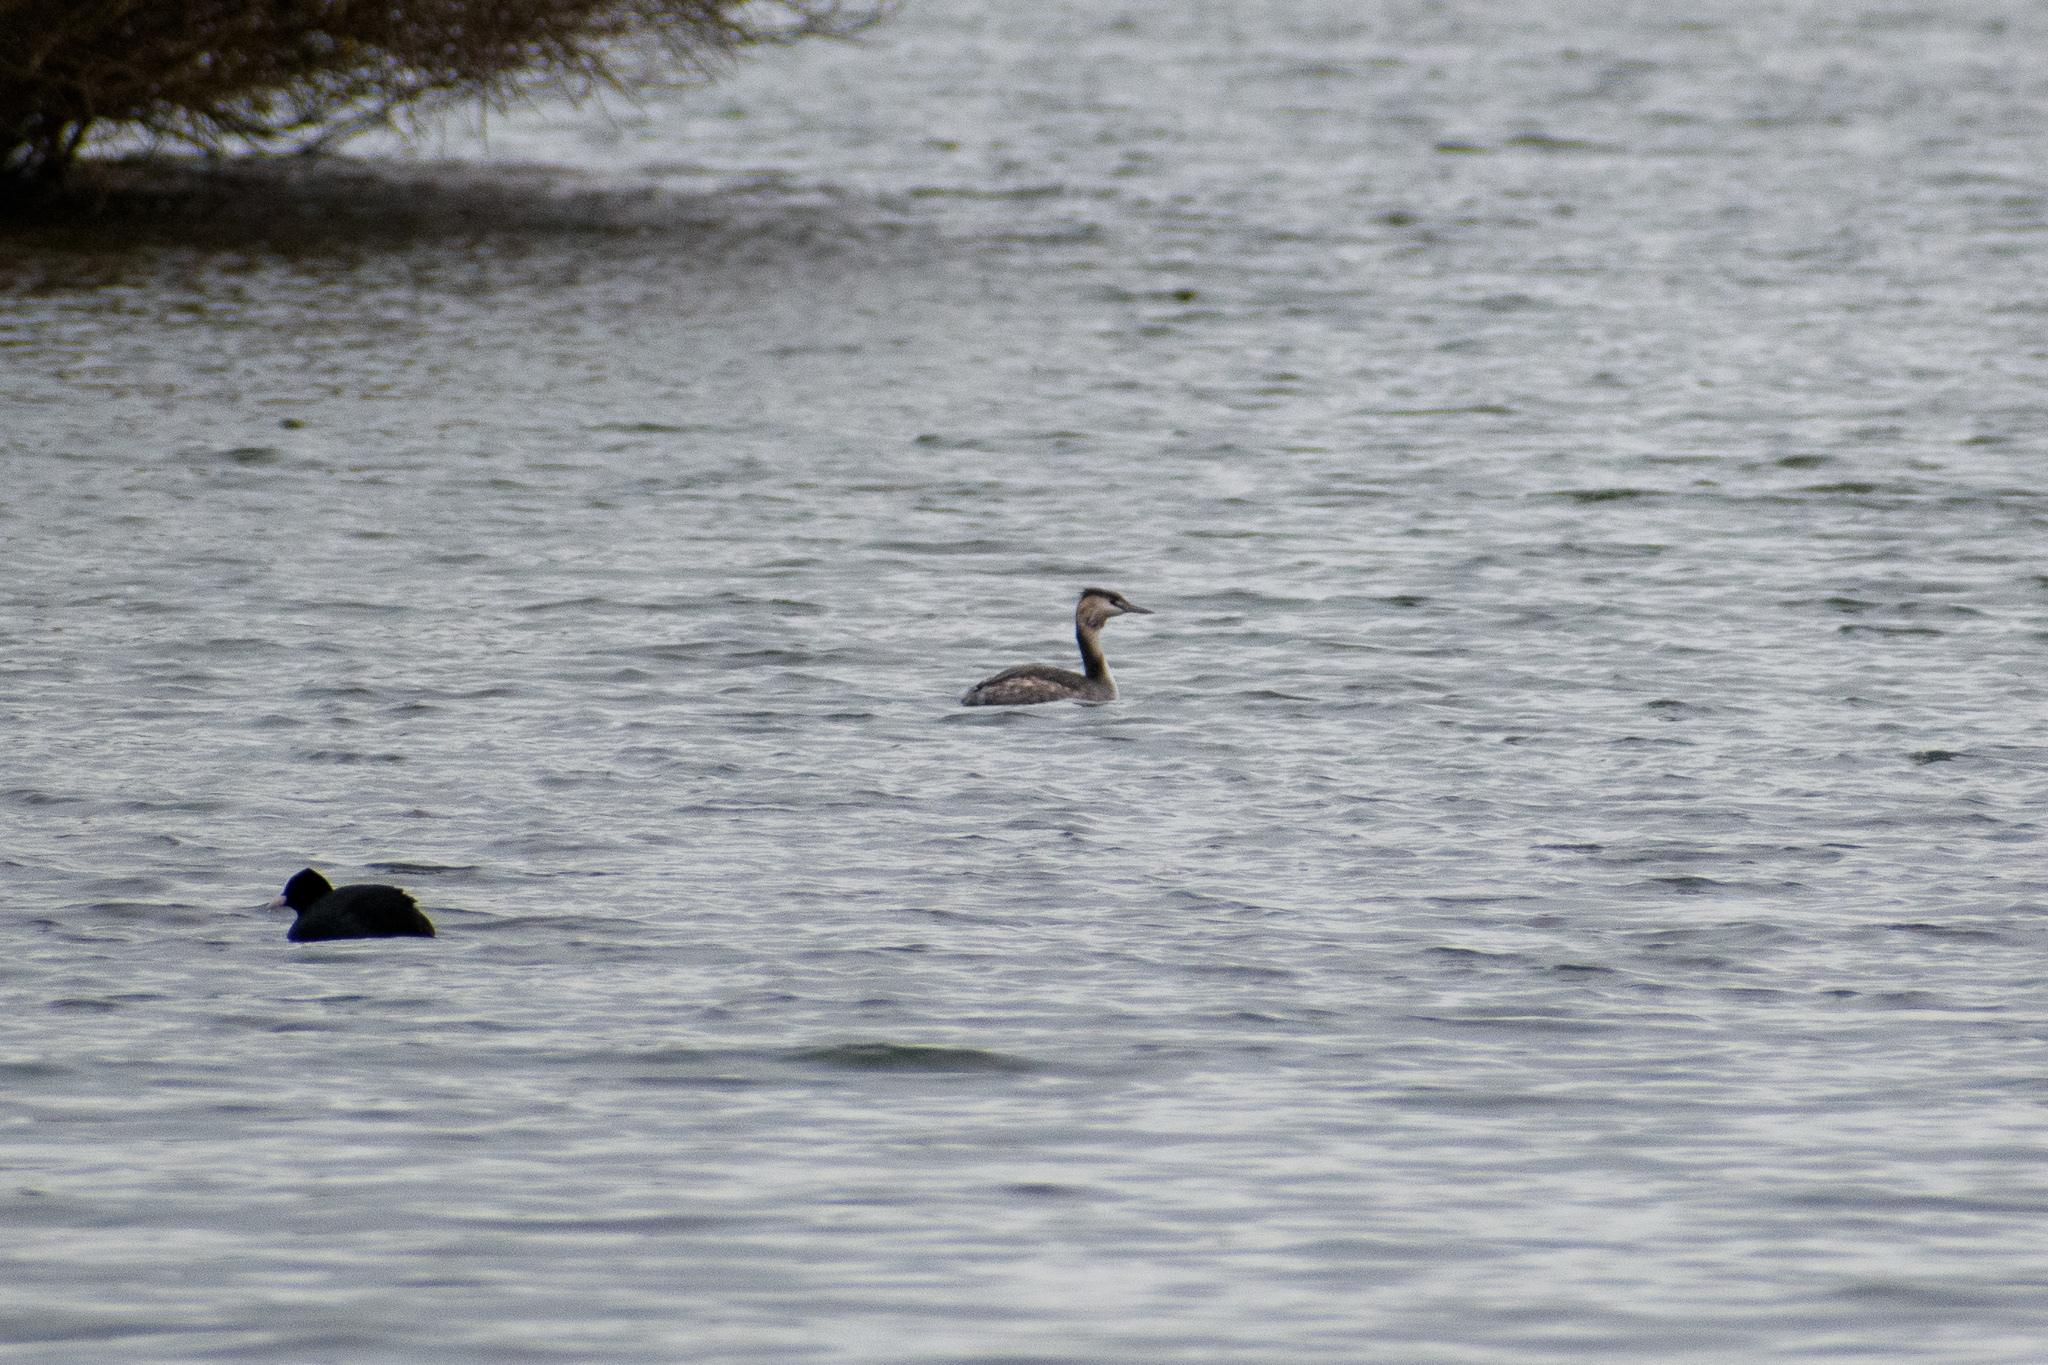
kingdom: Animalia
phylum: Chordata
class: Aves
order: Podicipediformes
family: Podicipedidae
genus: Podiceps
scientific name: Podiceps cristatus
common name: Great crested grebe
